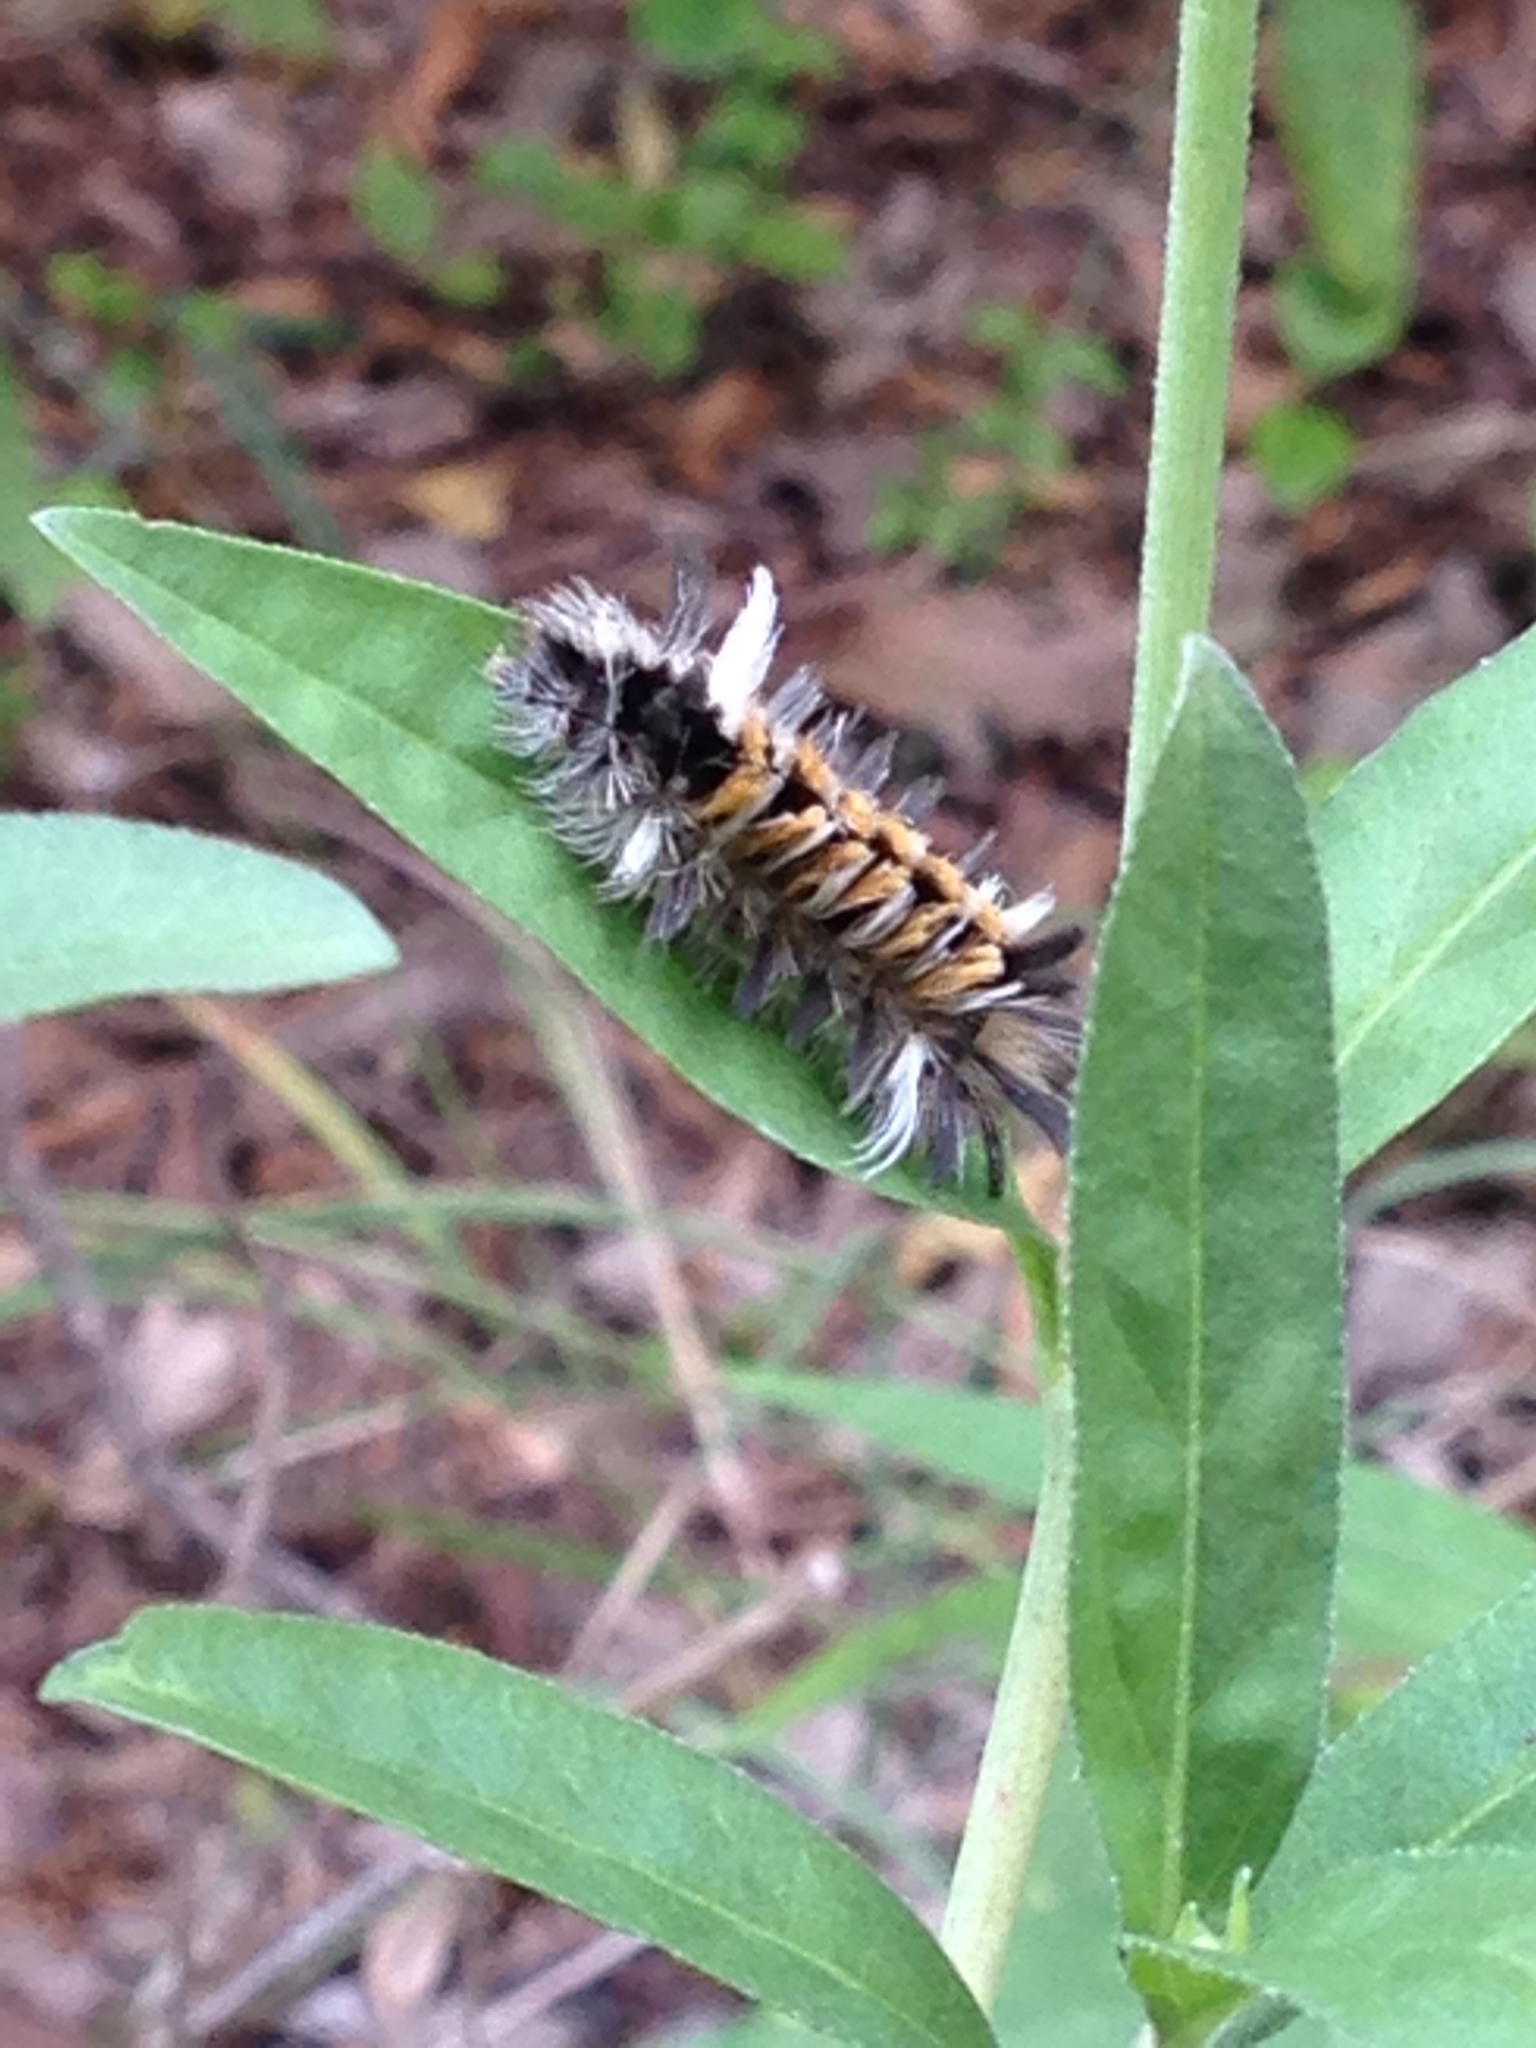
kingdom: Animalia
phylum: Arthropoda
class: Insecta
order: Lepidoptera
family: Erebidae
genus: Euchaetes
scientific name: Euchaetes egle
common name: Milkweed tussock moth
